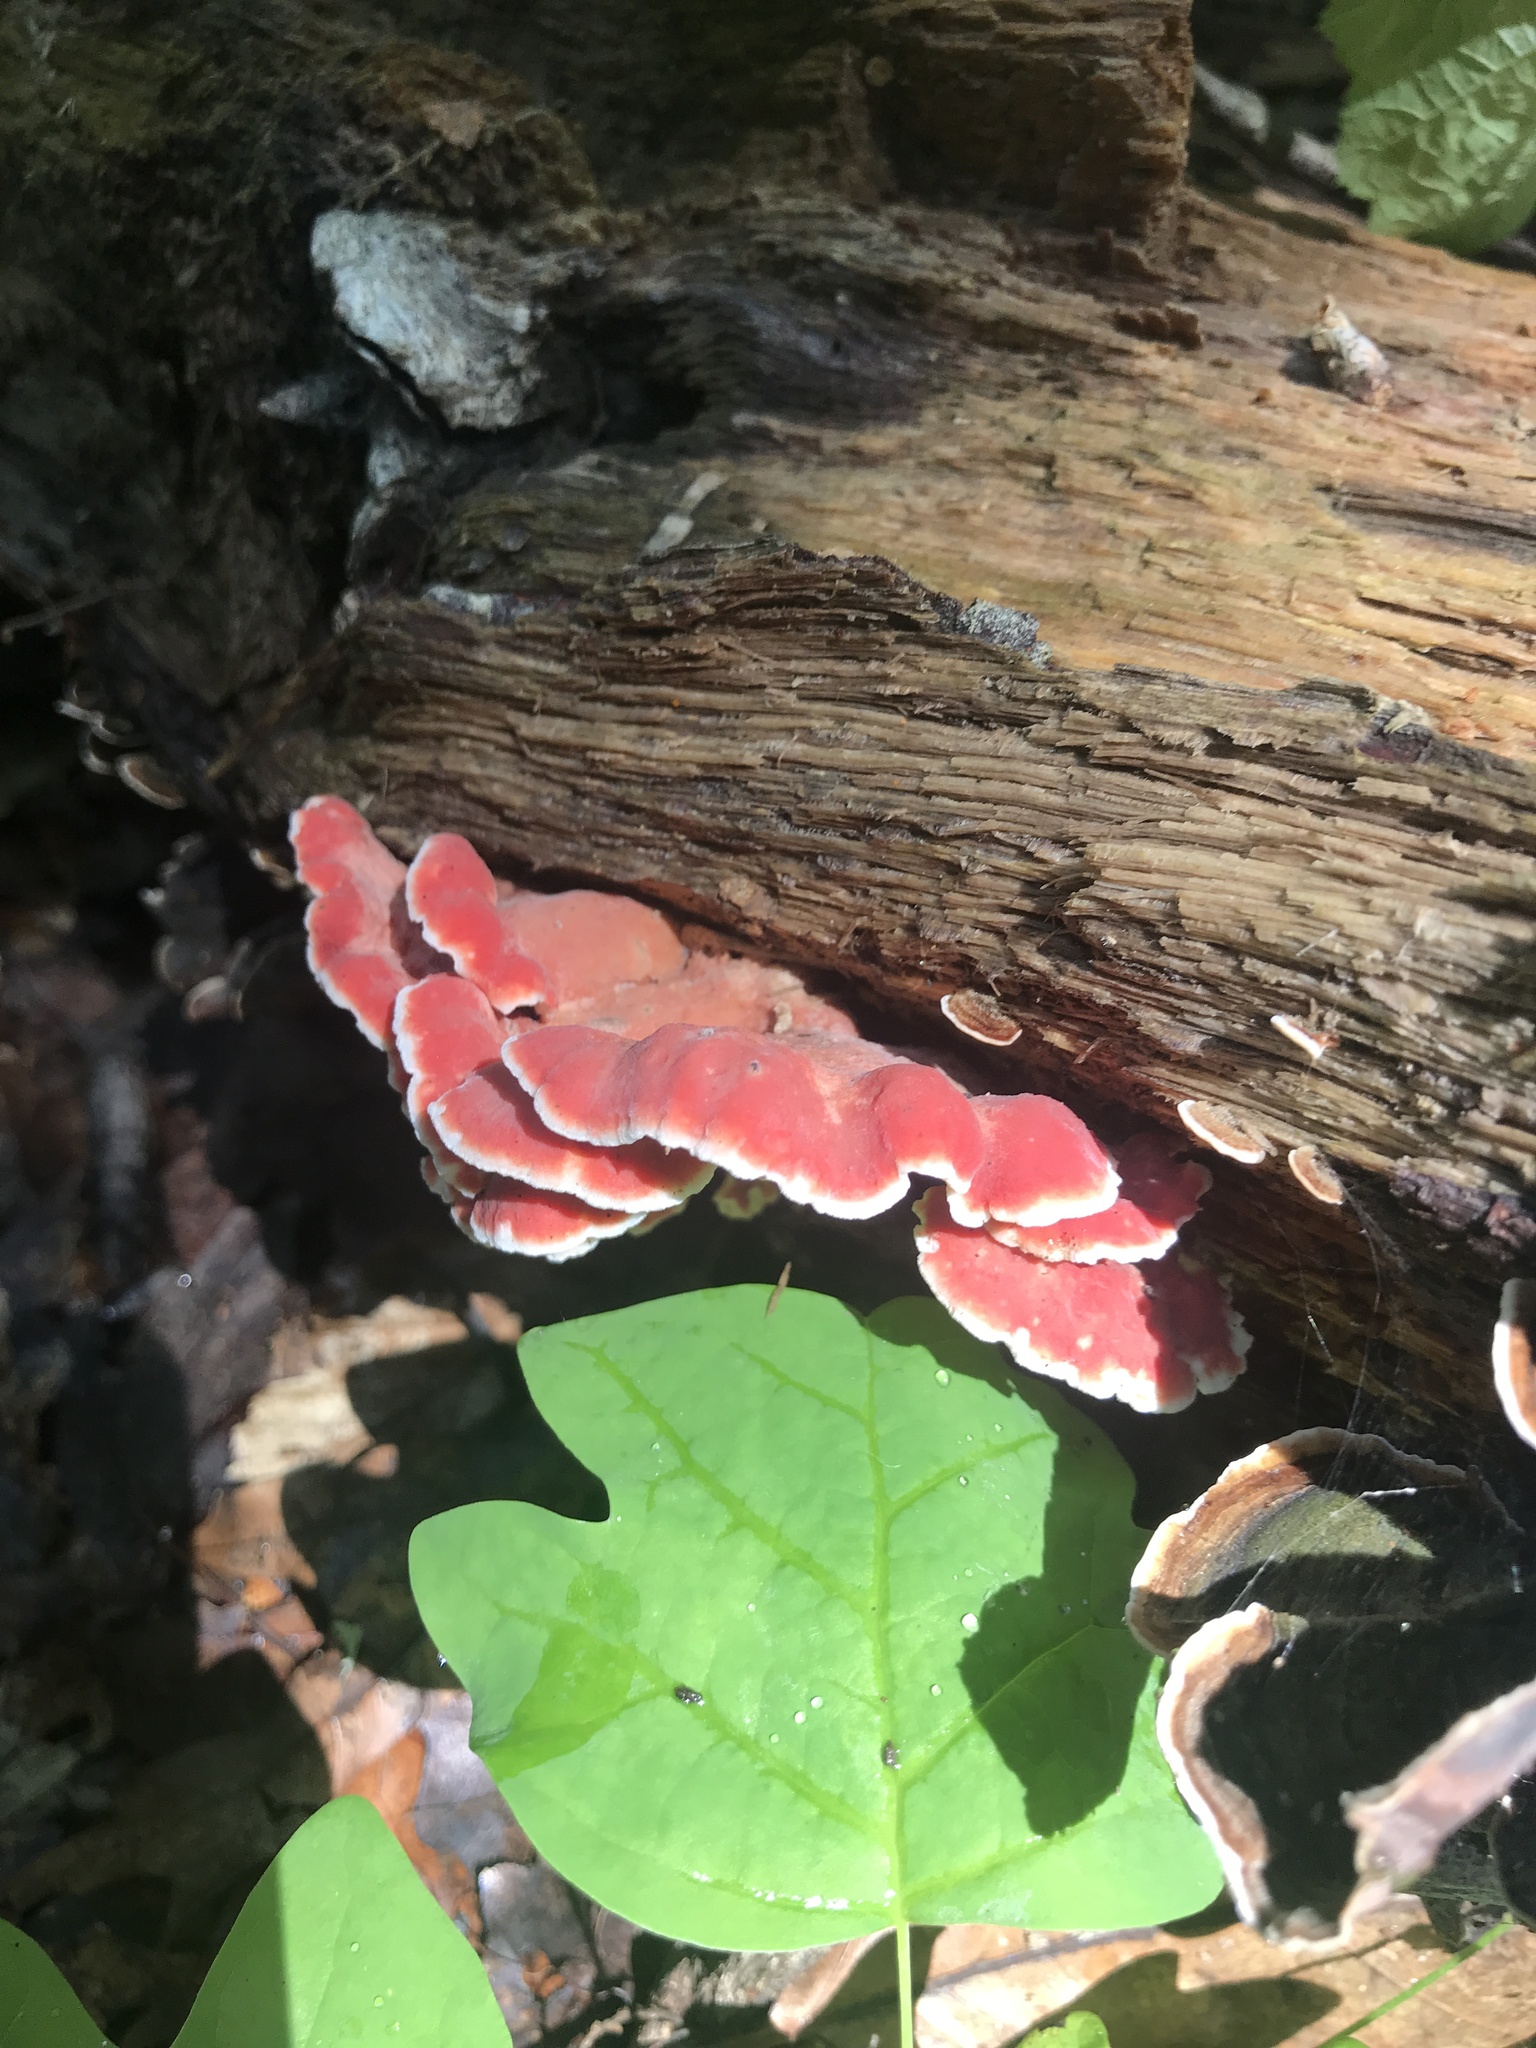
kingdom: Fungi
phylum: Basidiomycota
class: Agaricomycetes
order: Polyporales
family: Irpicaceae
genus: Byssomerulius
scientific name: Byssomerulius incarnatus
